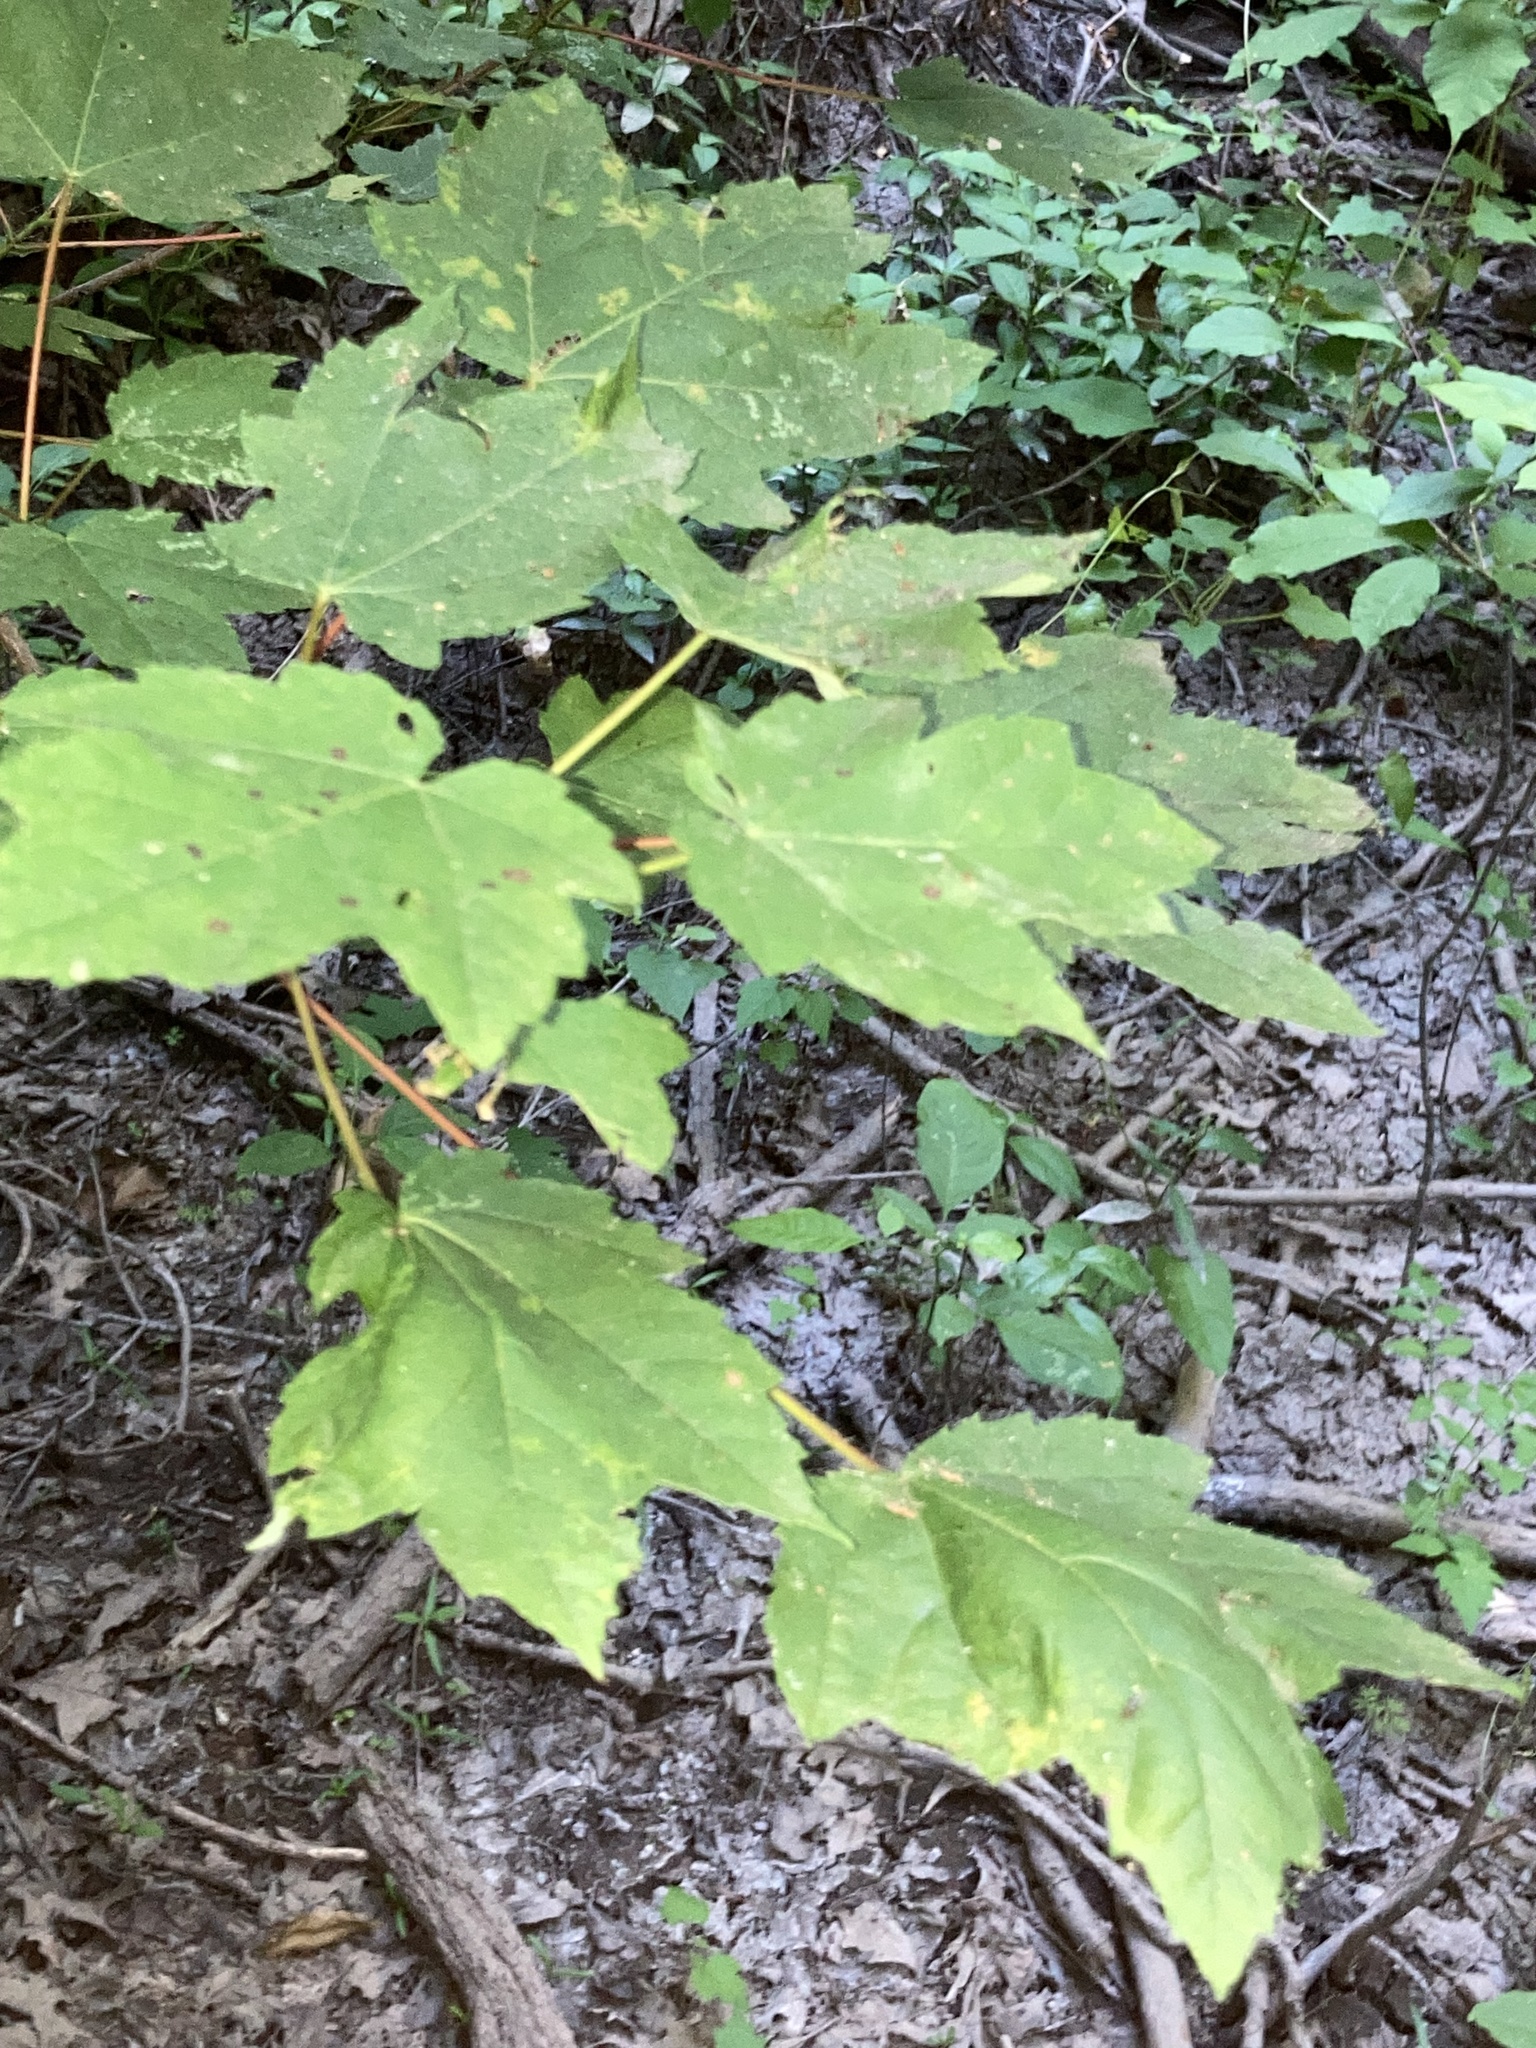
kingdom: Plantae
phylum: Tracheophyta
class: Magnoliopsida
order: Sapindales
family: Sapindaceae
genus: Acer
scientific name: Acer rubrum
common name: Red maple
